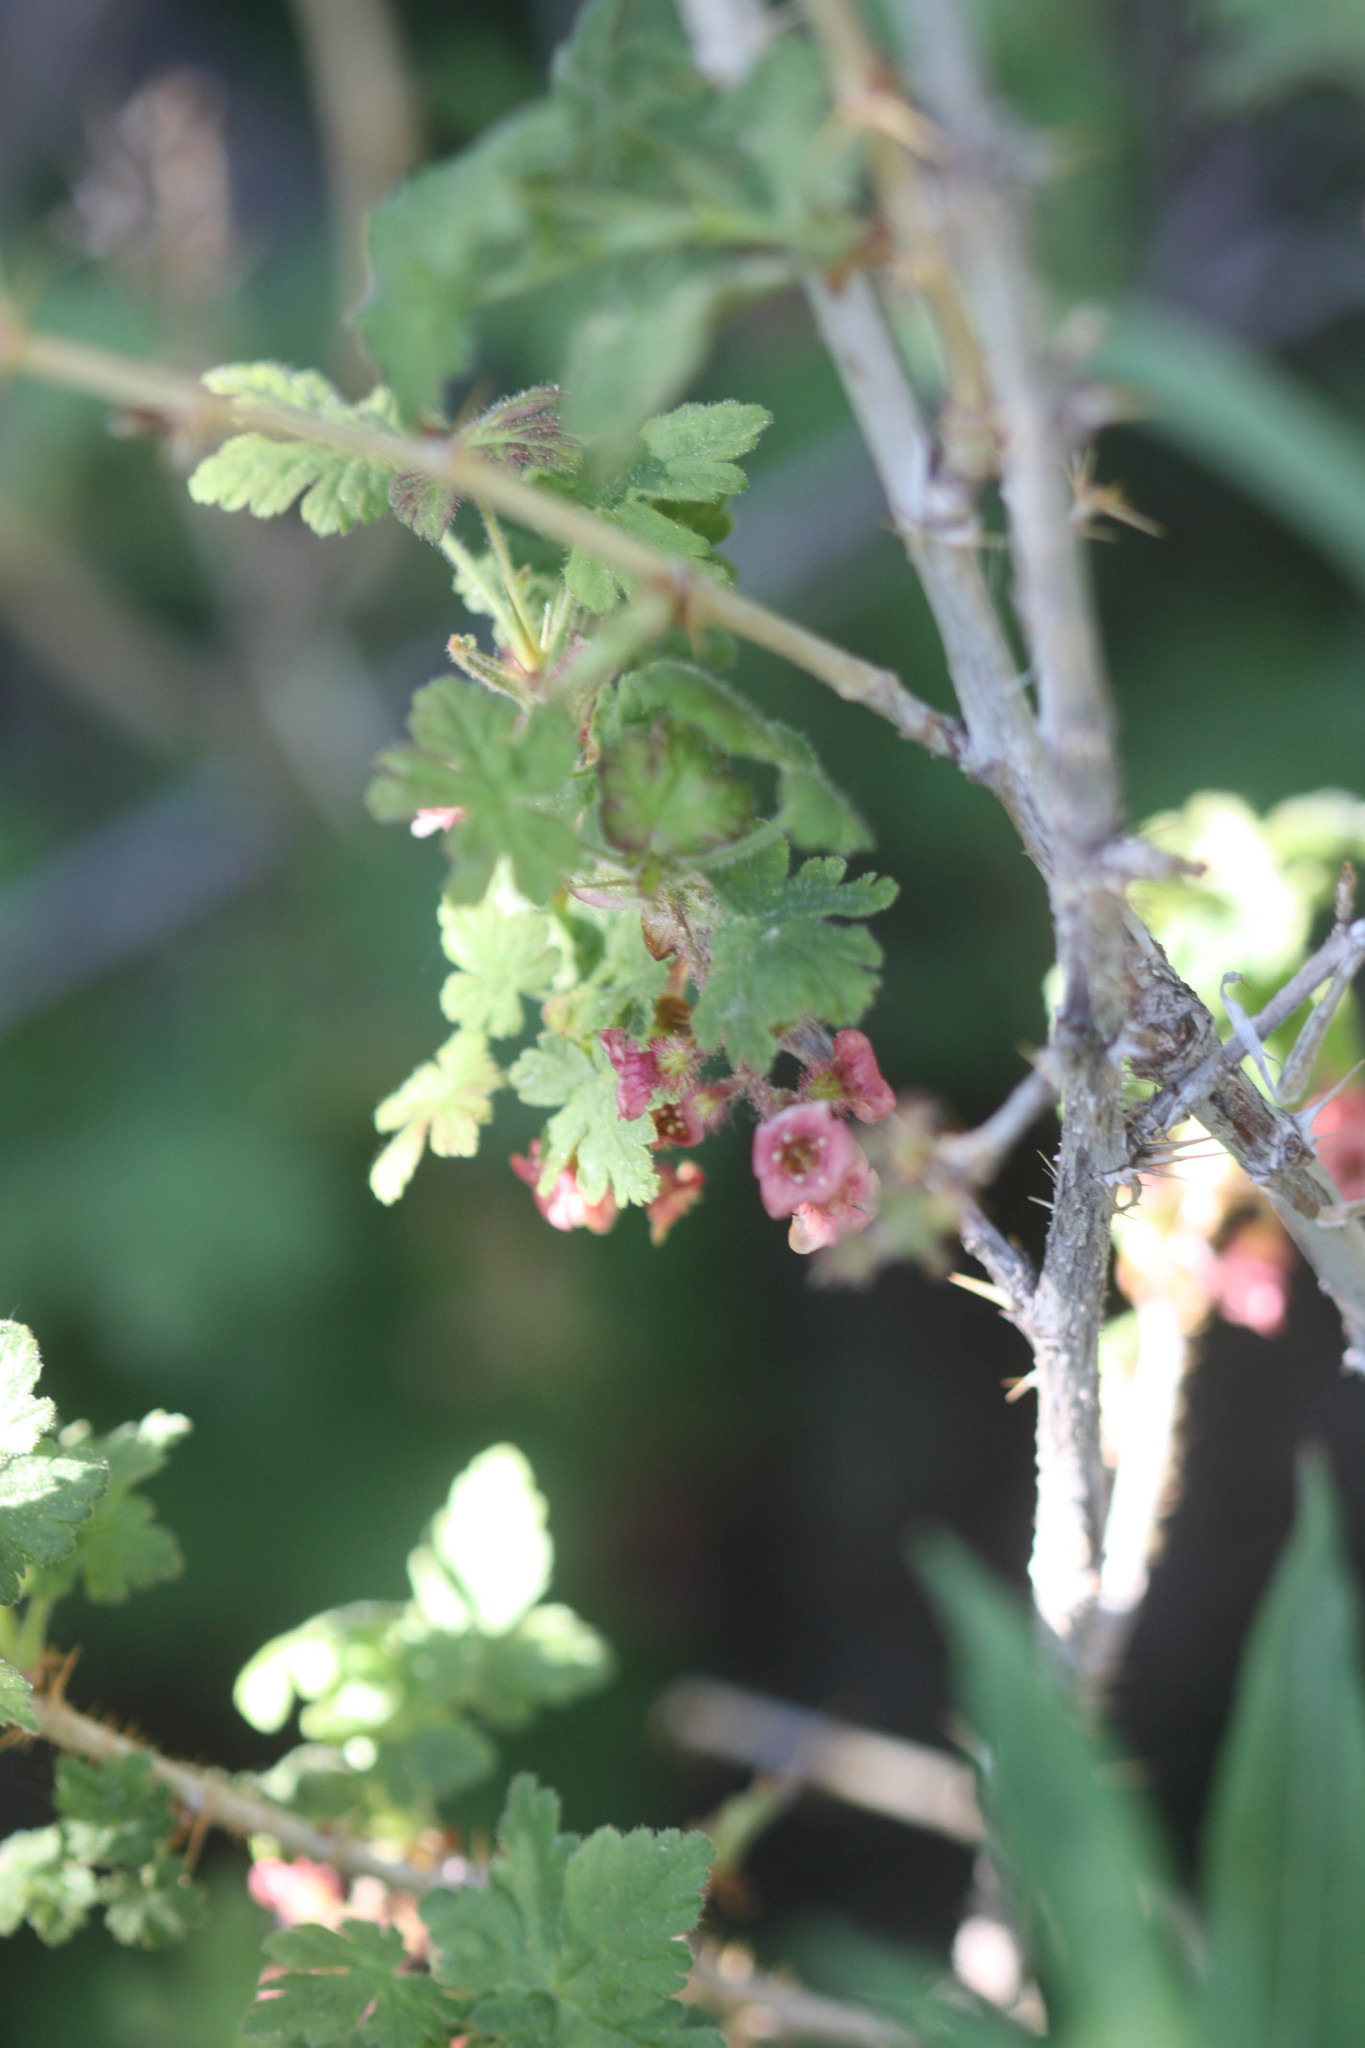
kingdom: Plantae
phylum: Tracheophyta
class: Magnoliopsida
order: Saxifragales
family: Grossulariaceae
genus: Ribes
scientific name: Ribes montigenum
